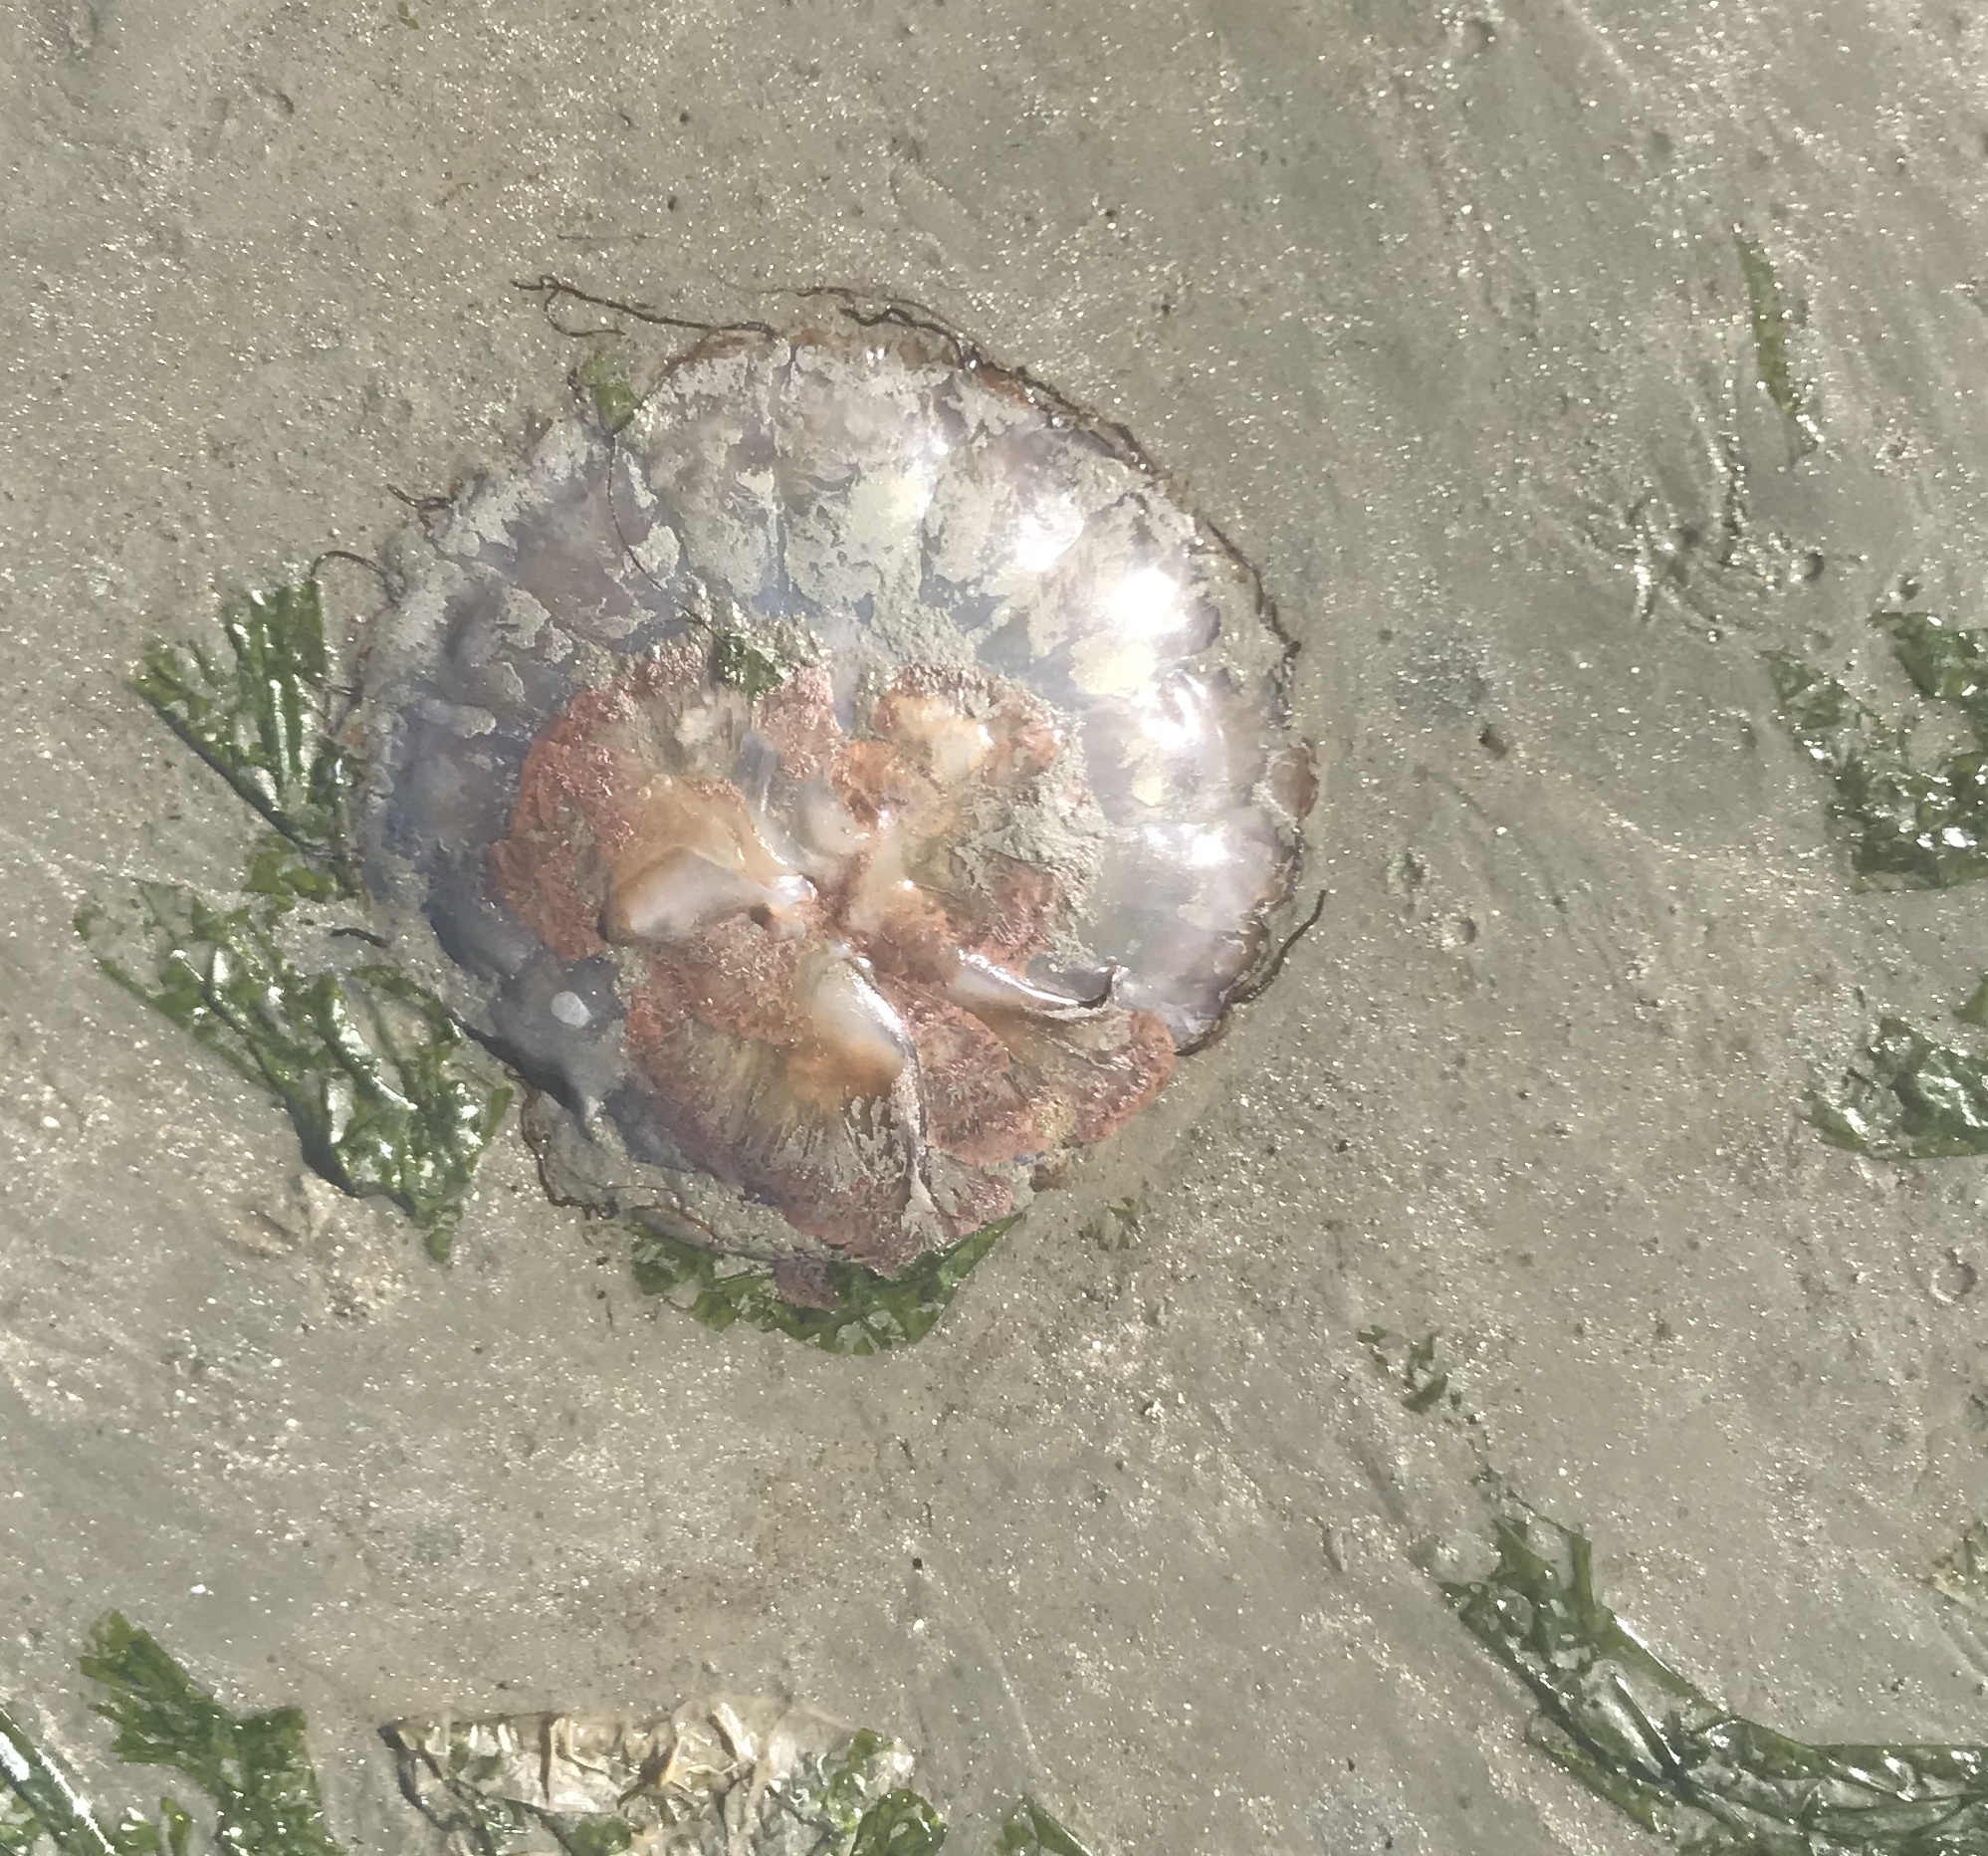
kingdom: Animalia
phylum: Cnidaria
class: Scyphozoa
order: Semaeostomeae
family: Pelagiidae
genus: Chrysaora
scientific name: Chrysaora fuscescens
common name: Sea nettle
